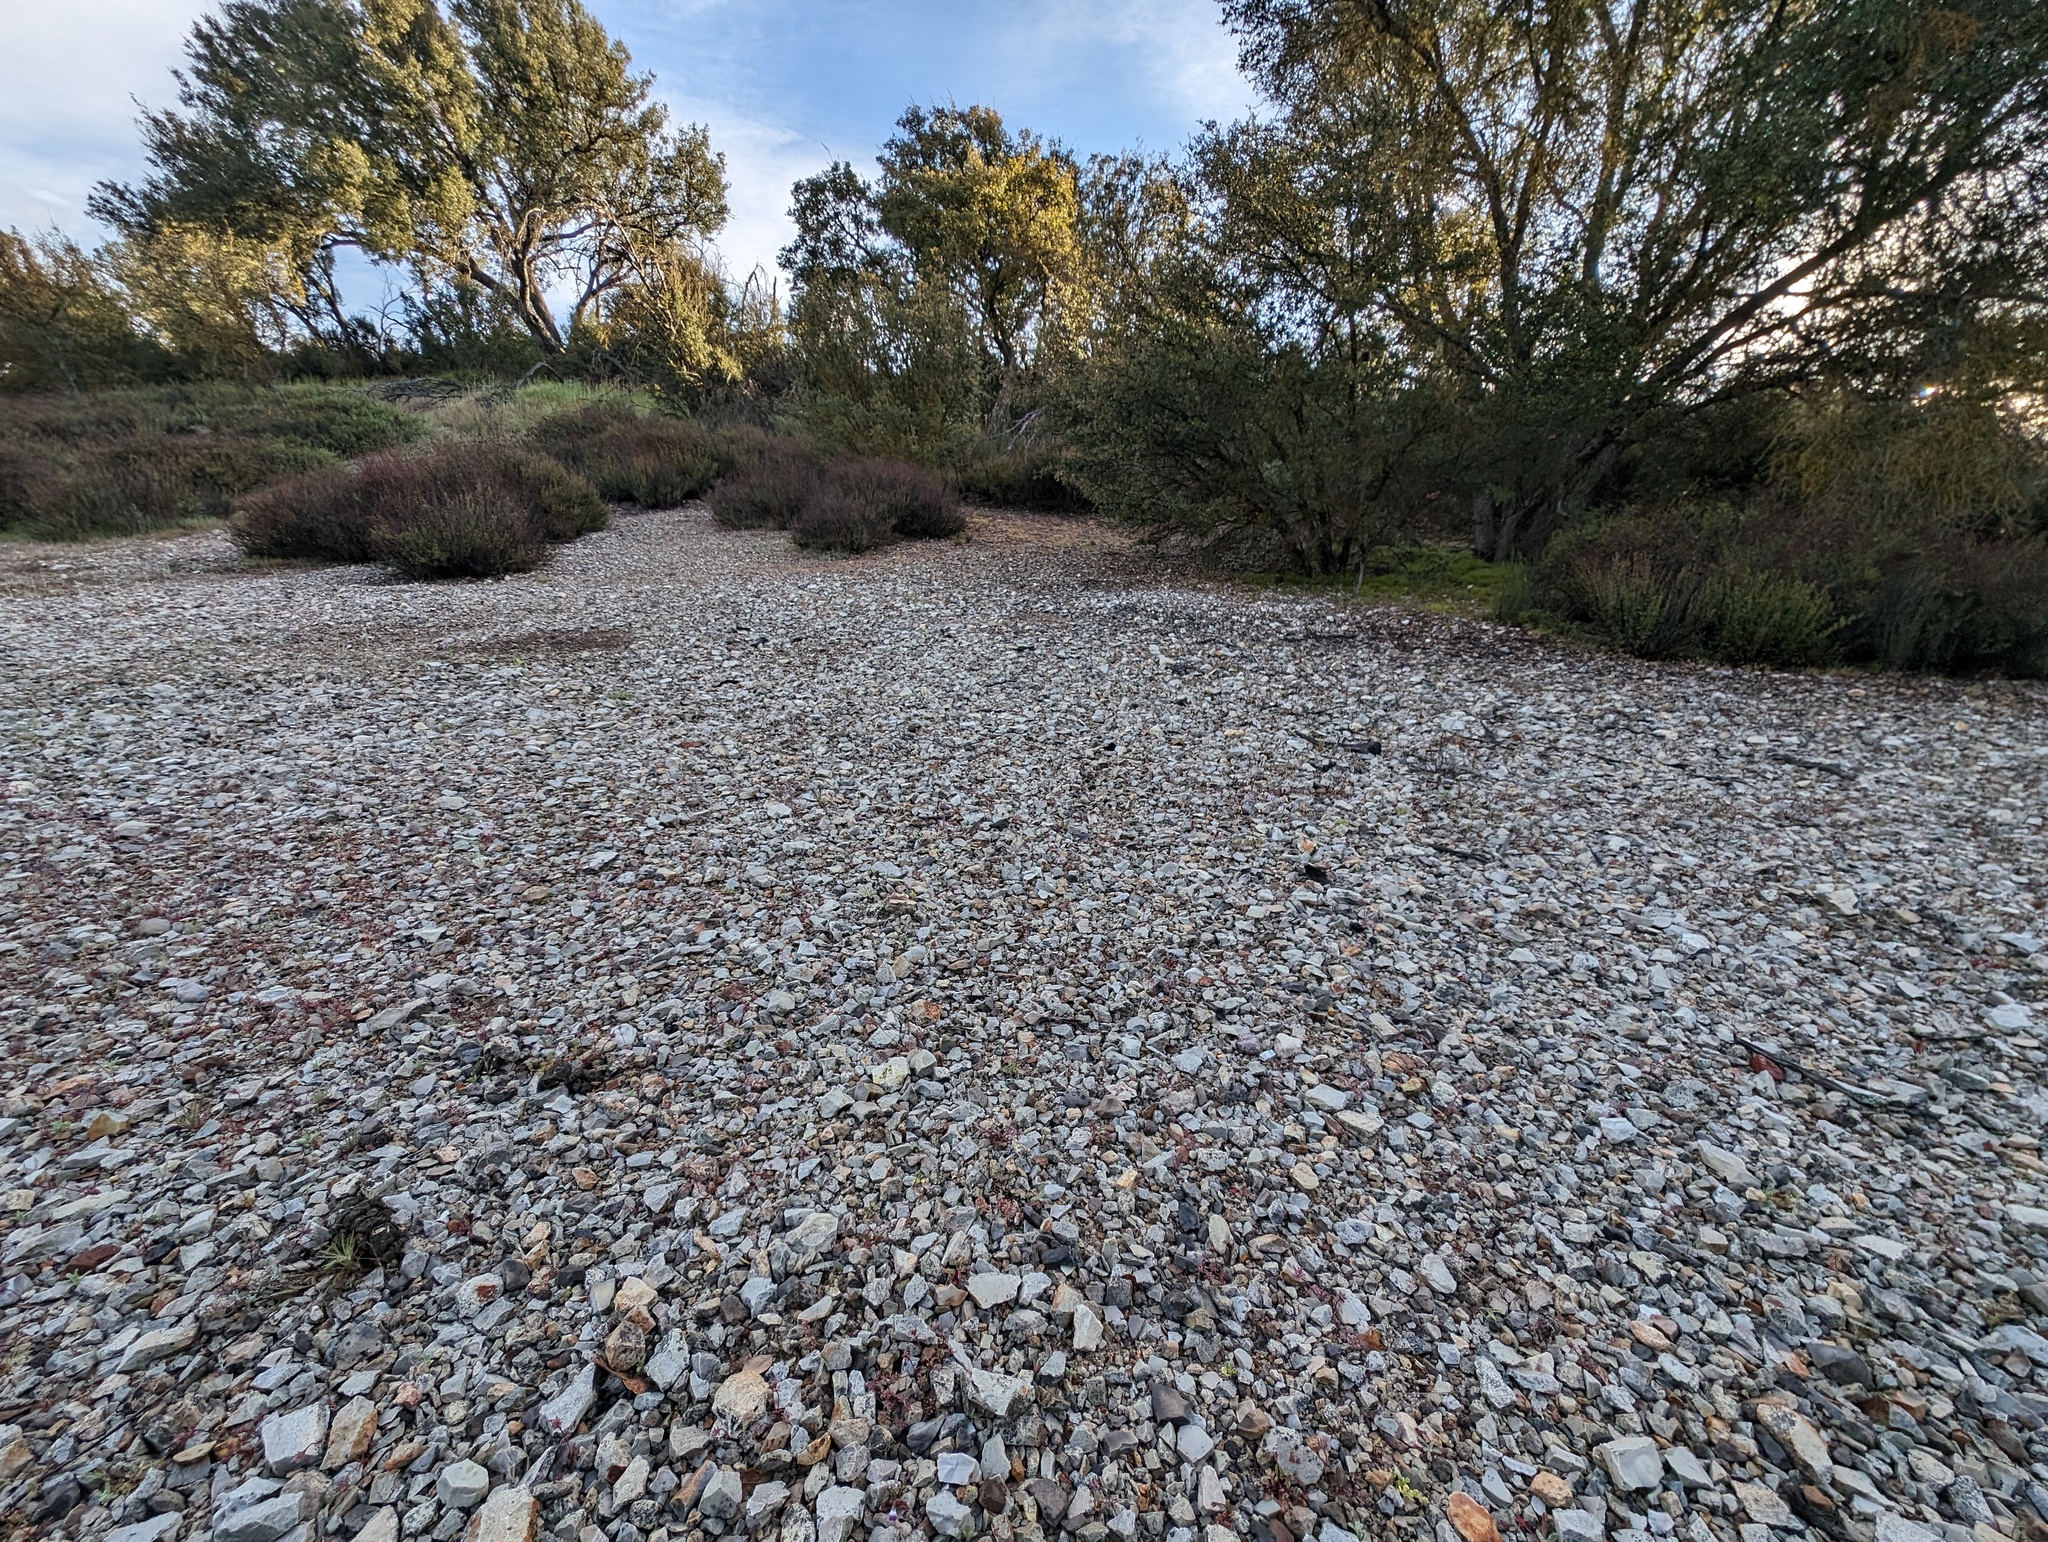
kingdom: Plantae
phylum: Tracheophyta
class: Magnoliopsida
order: Lamiales
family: Plantaginaceae
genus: Collinsia
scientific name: Collinsia antonina
